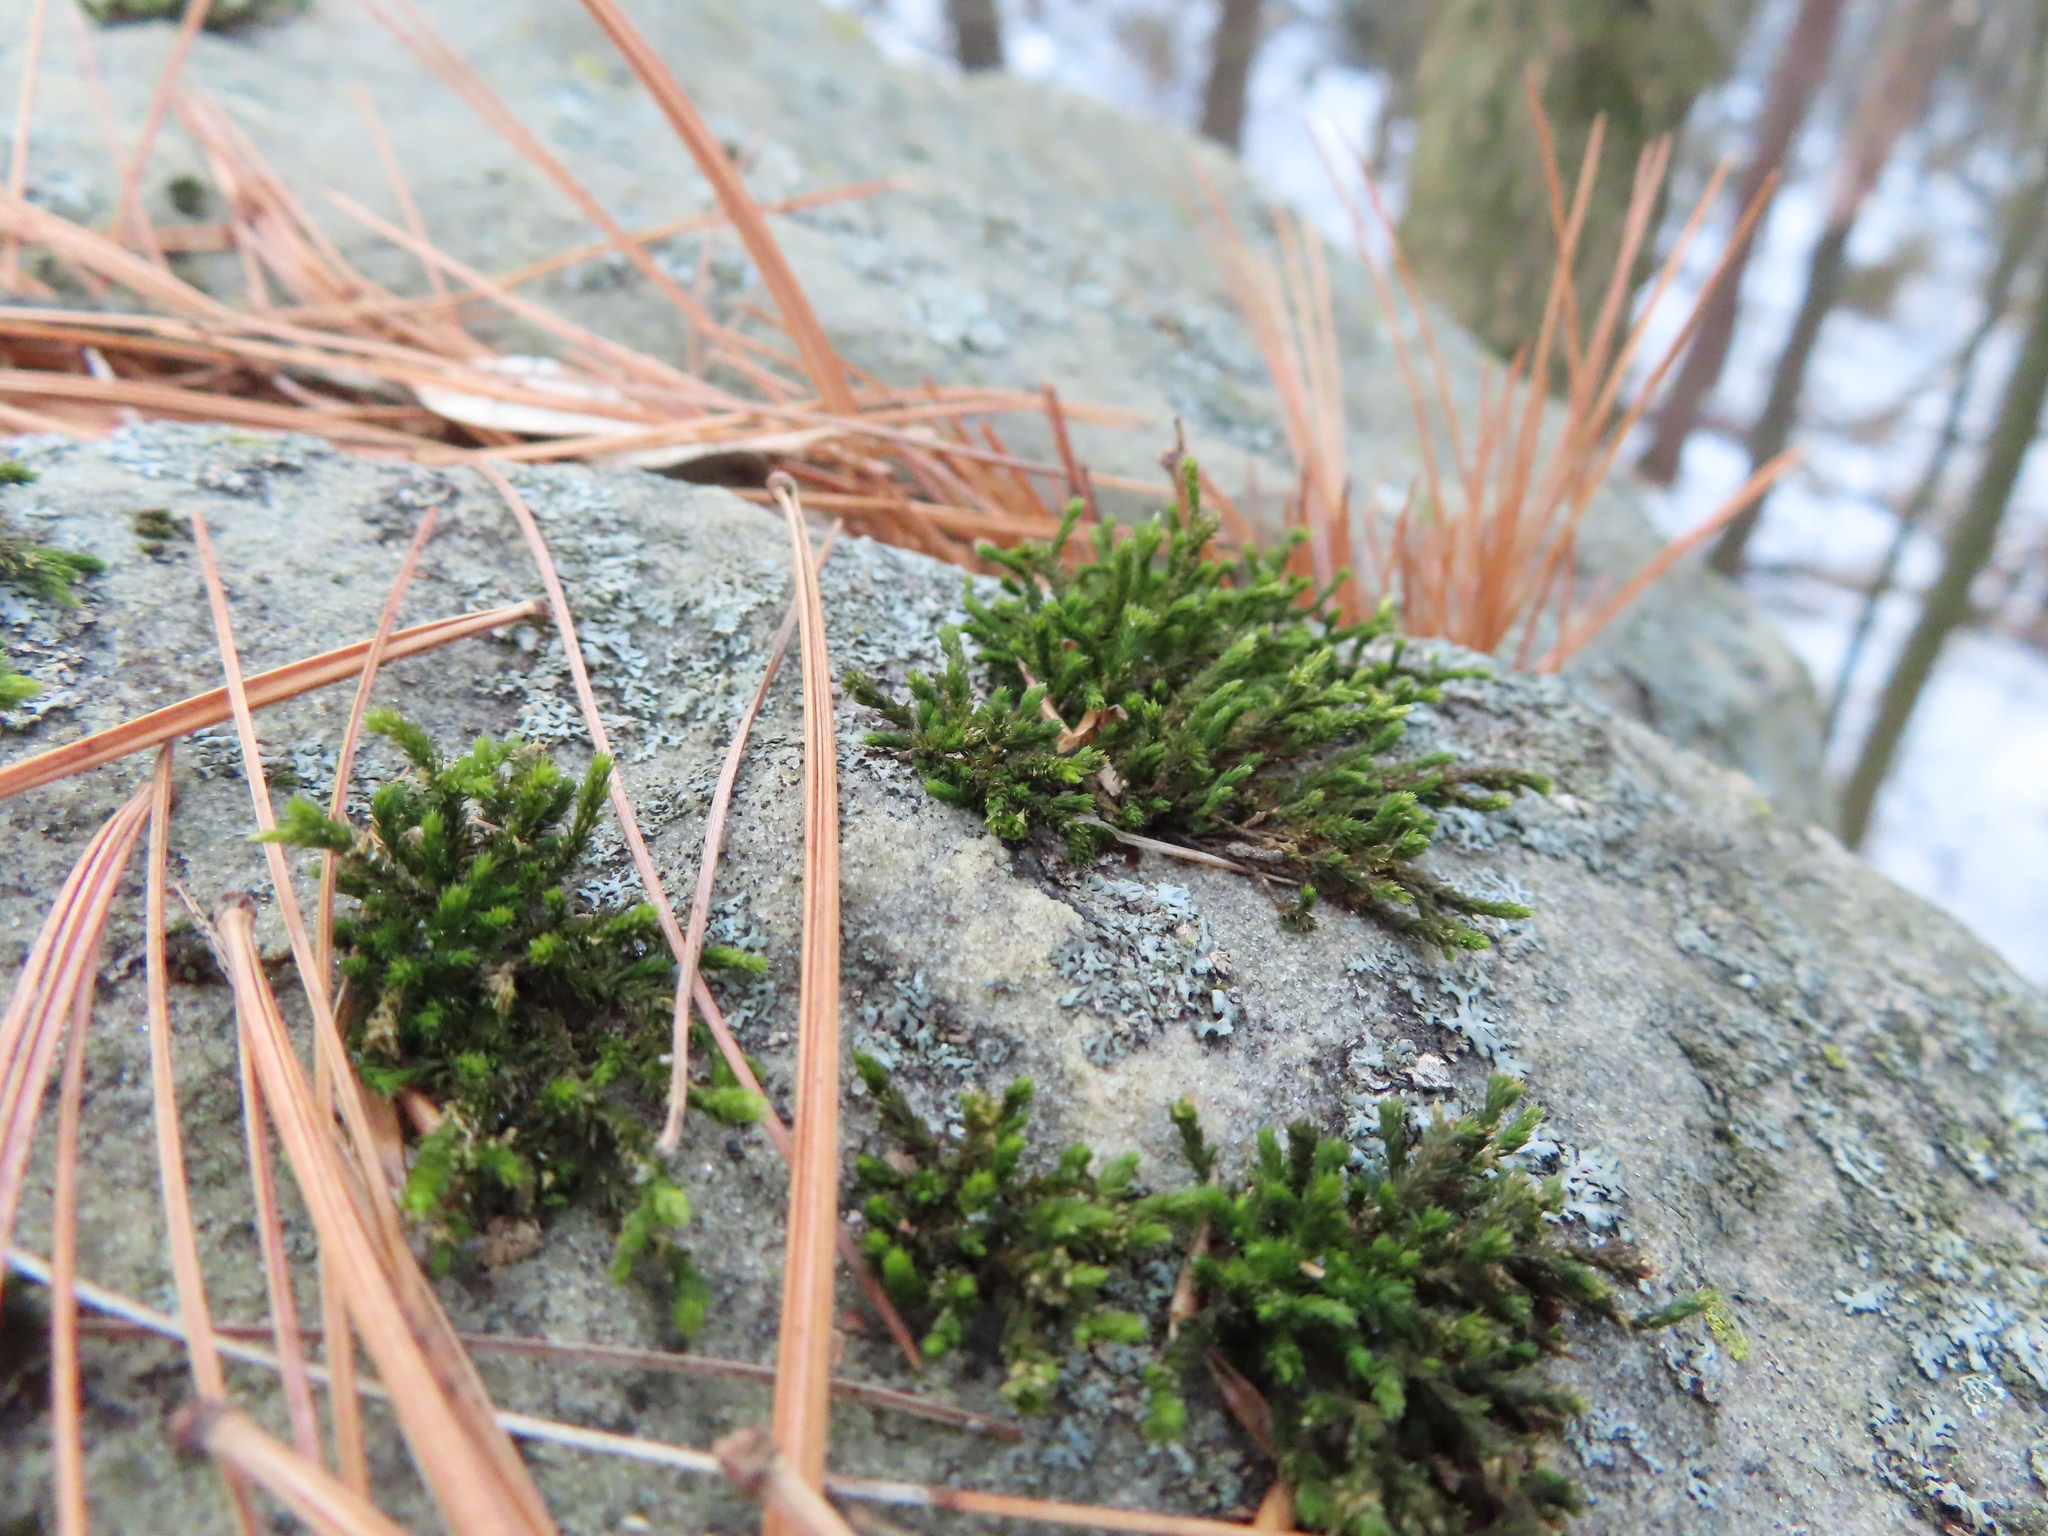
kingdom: Plantae
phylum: Bryophyta
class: Bryopsida
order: Hedwigiales
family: Hedwigiaceae
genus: Hedwigia
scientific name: Hedwigia ciliata
